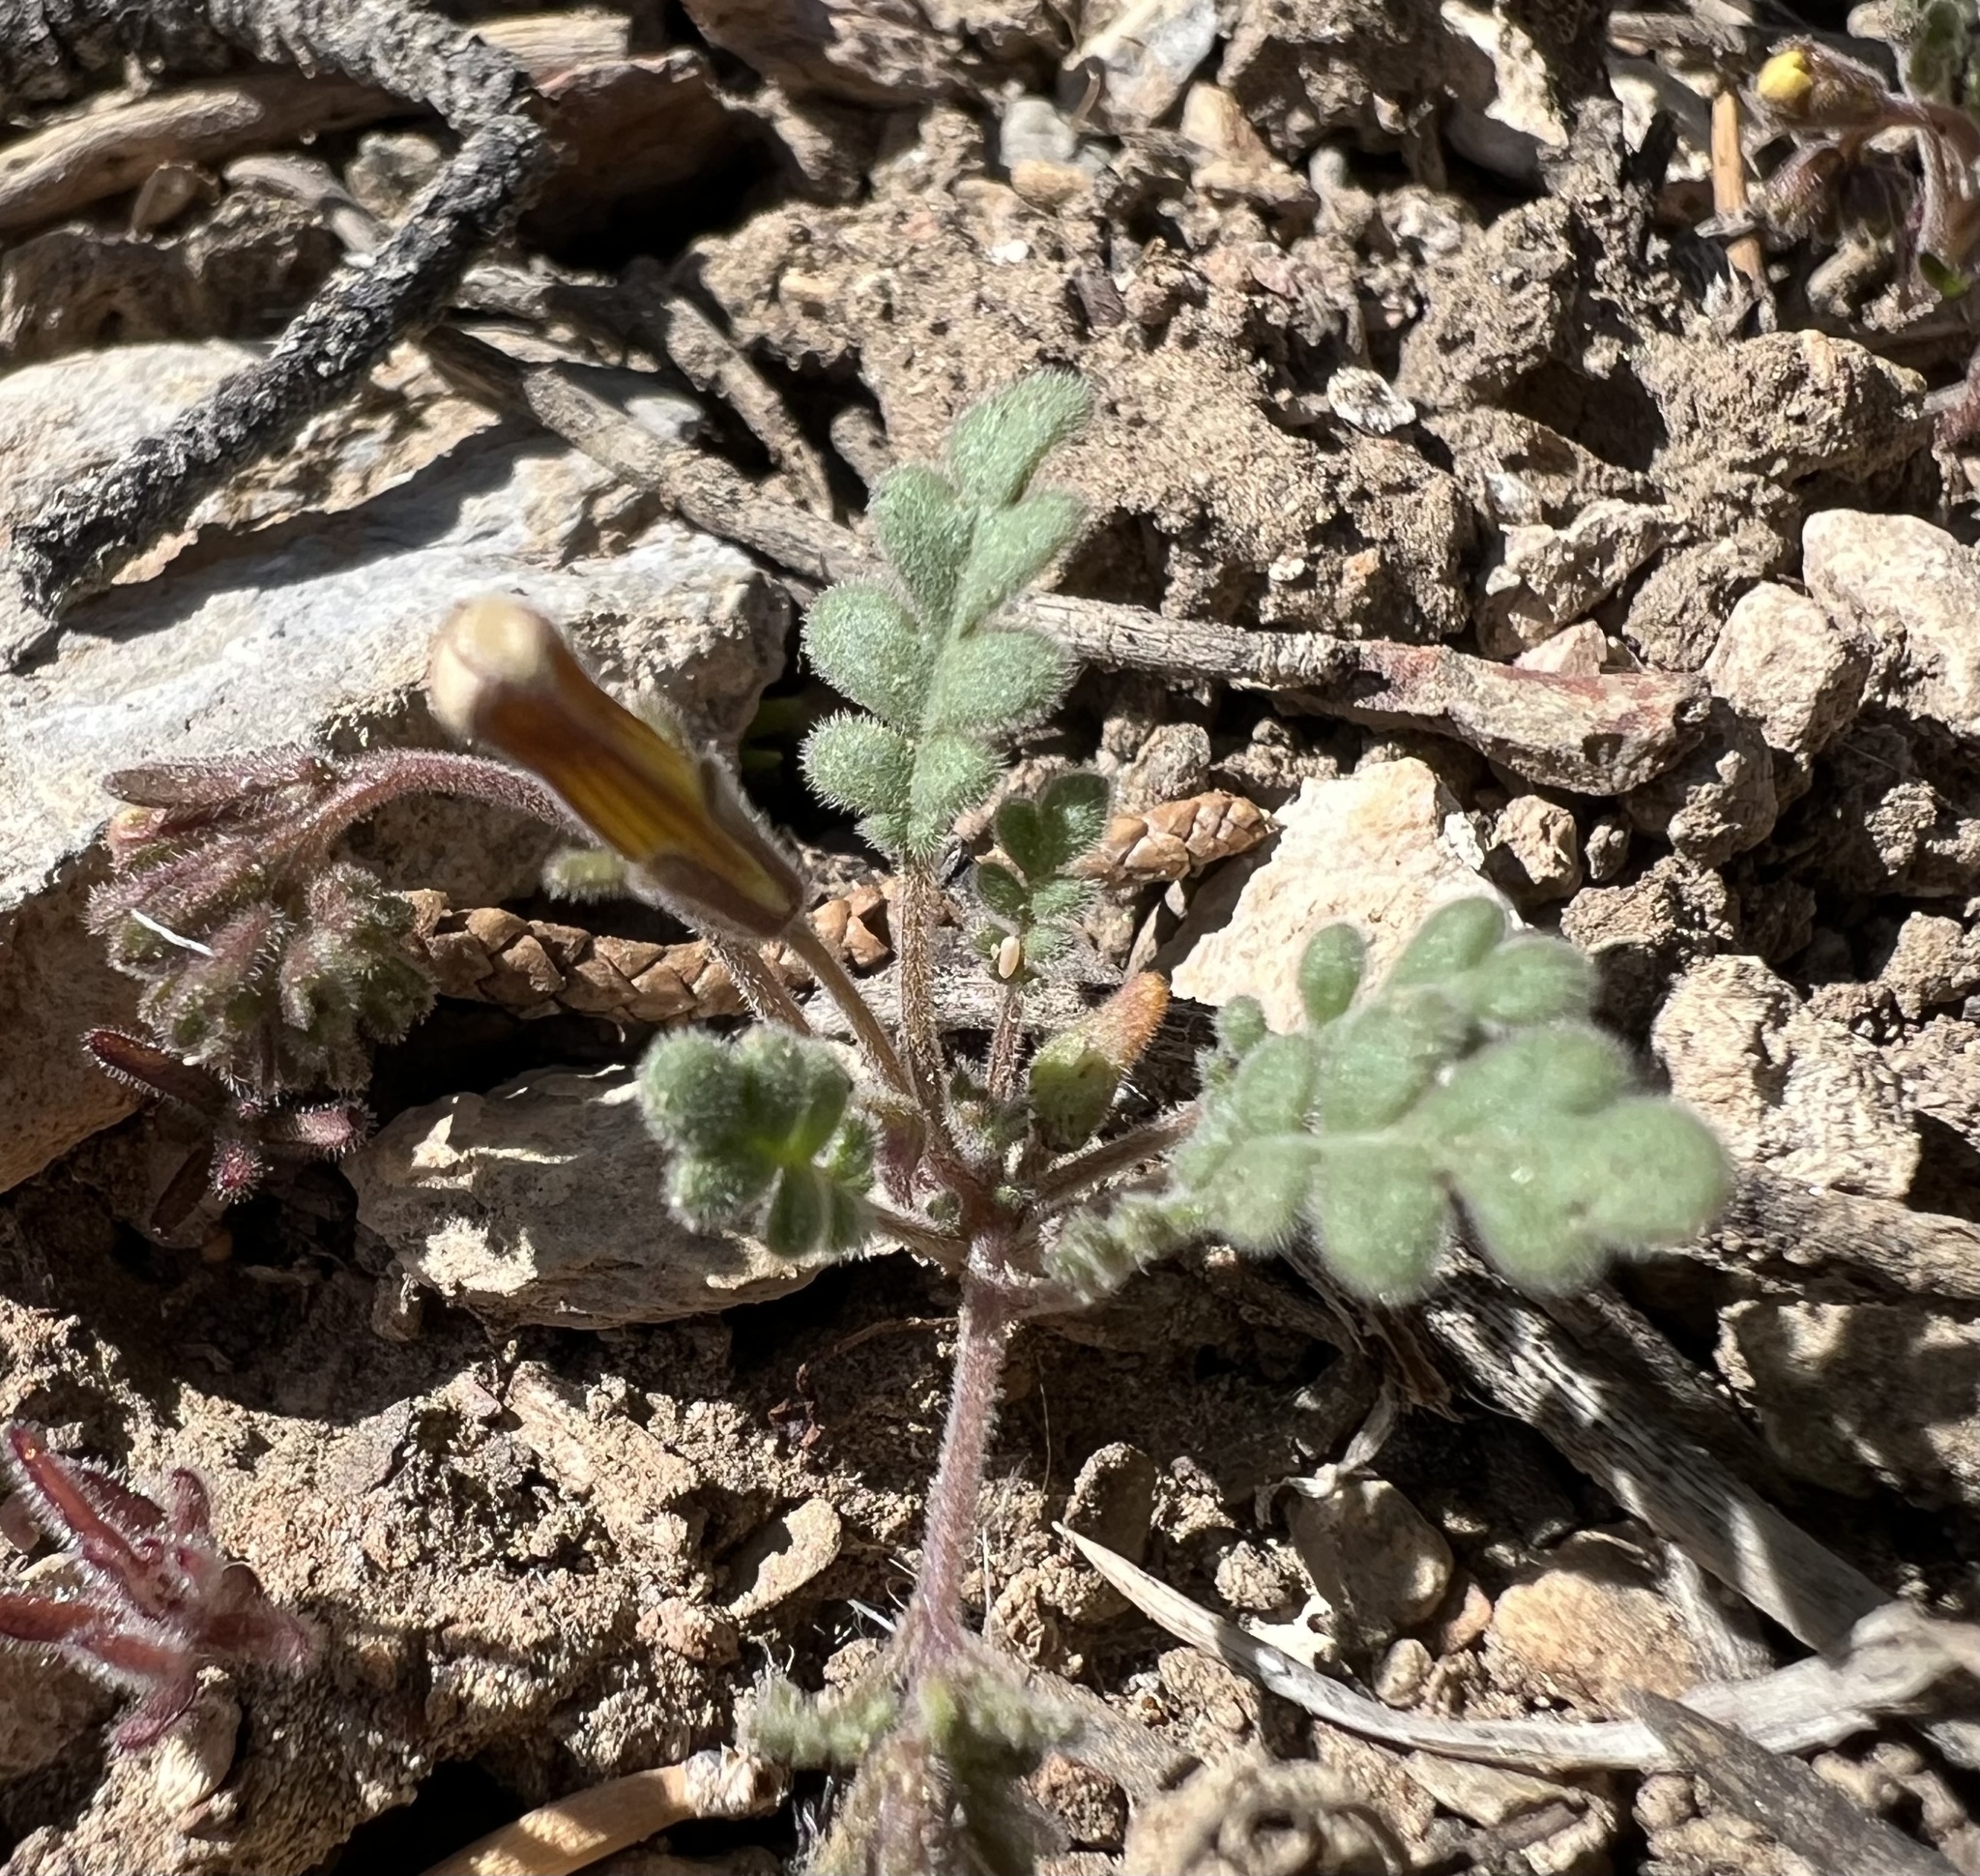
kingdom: Plantae
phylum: Tracheophyta
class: Magnoliopsida
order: Boraginales
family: Hydrophyllaceae
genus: Phacelia
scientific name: Phacelia fremontii
